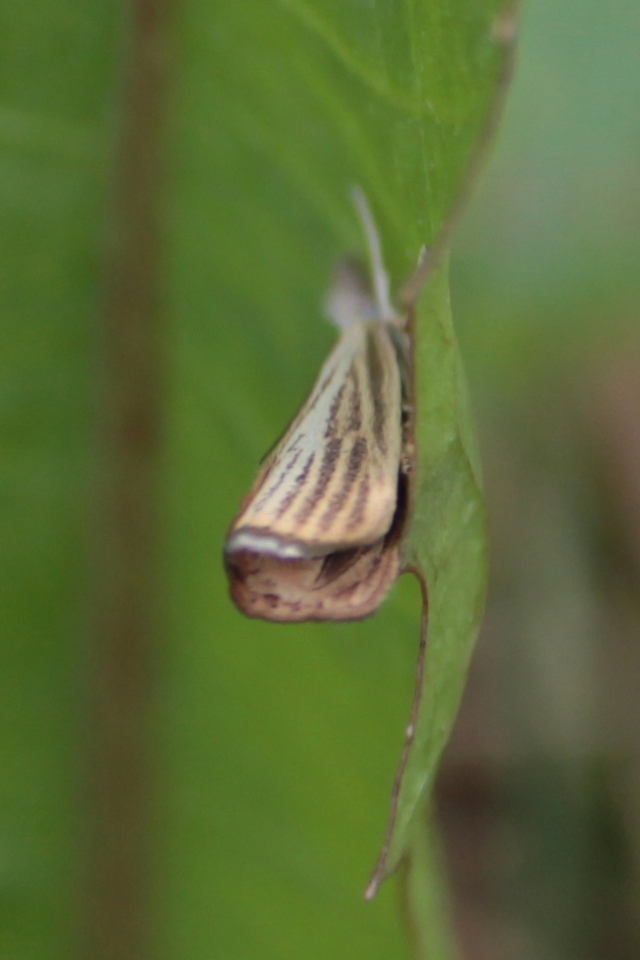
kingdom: Animalia
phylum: Arthropoda
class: Insecta
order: Lepidoptera
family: Crambidae
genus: Agriphila
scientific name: Agriphila straminella
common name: Straw grass-veneer
